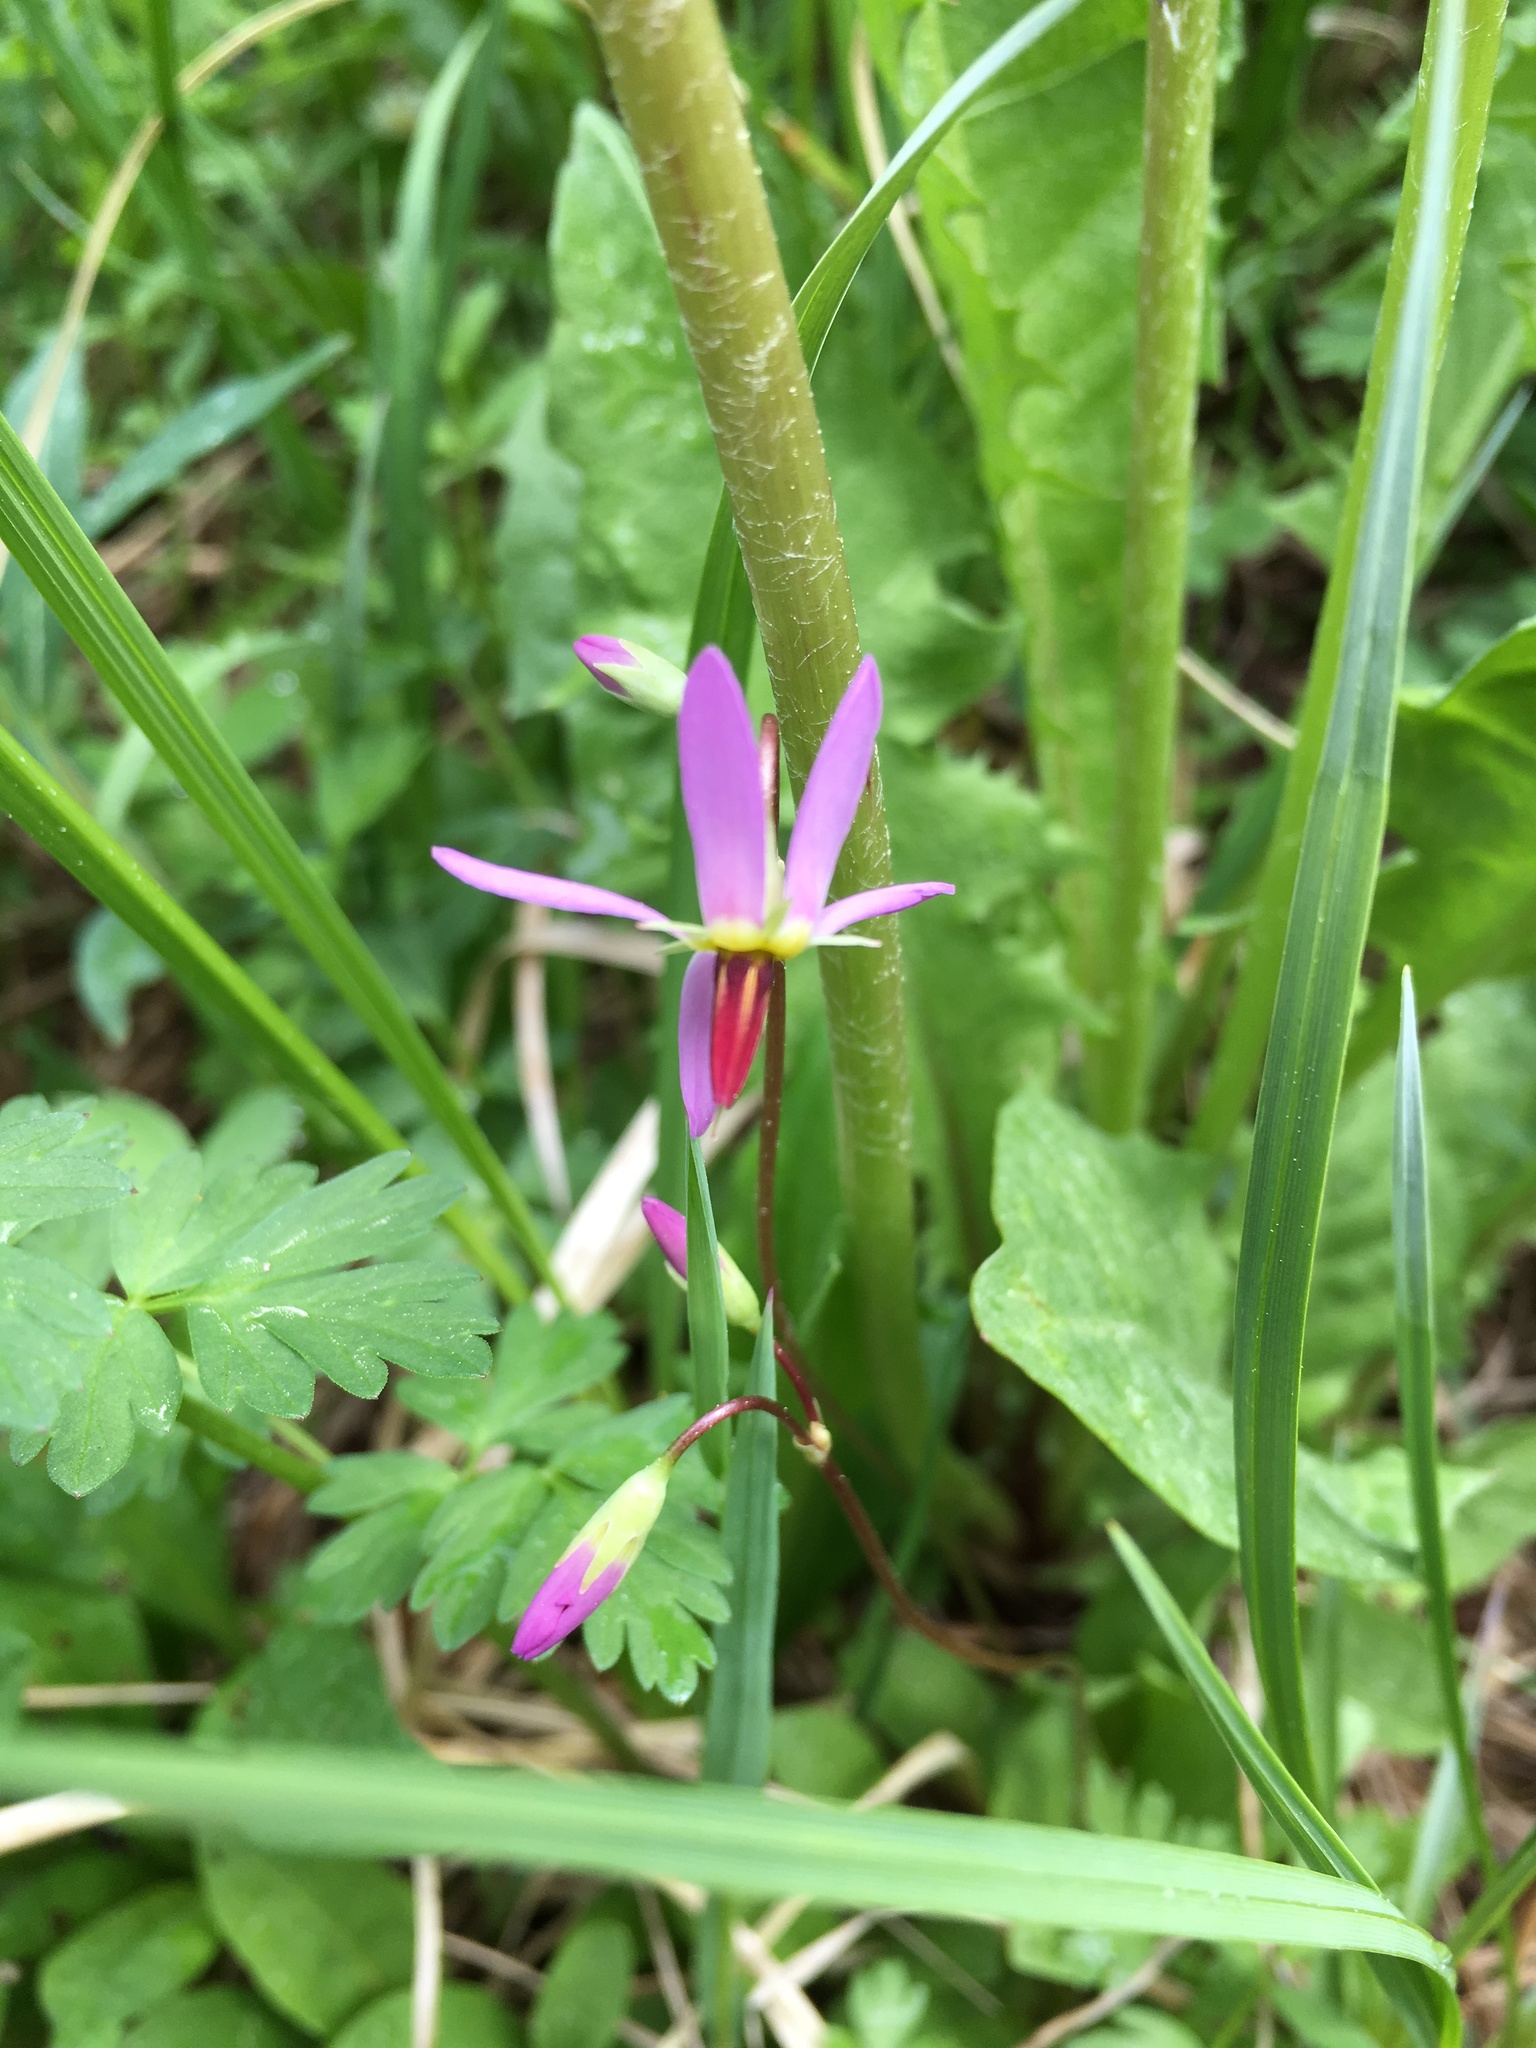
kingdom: Plantae
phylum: Tracheophyta
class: Magnoliopsida
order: Ericales
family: Primulaceae
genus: Dodecatheon
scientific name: Dodecatheon pulchellum
